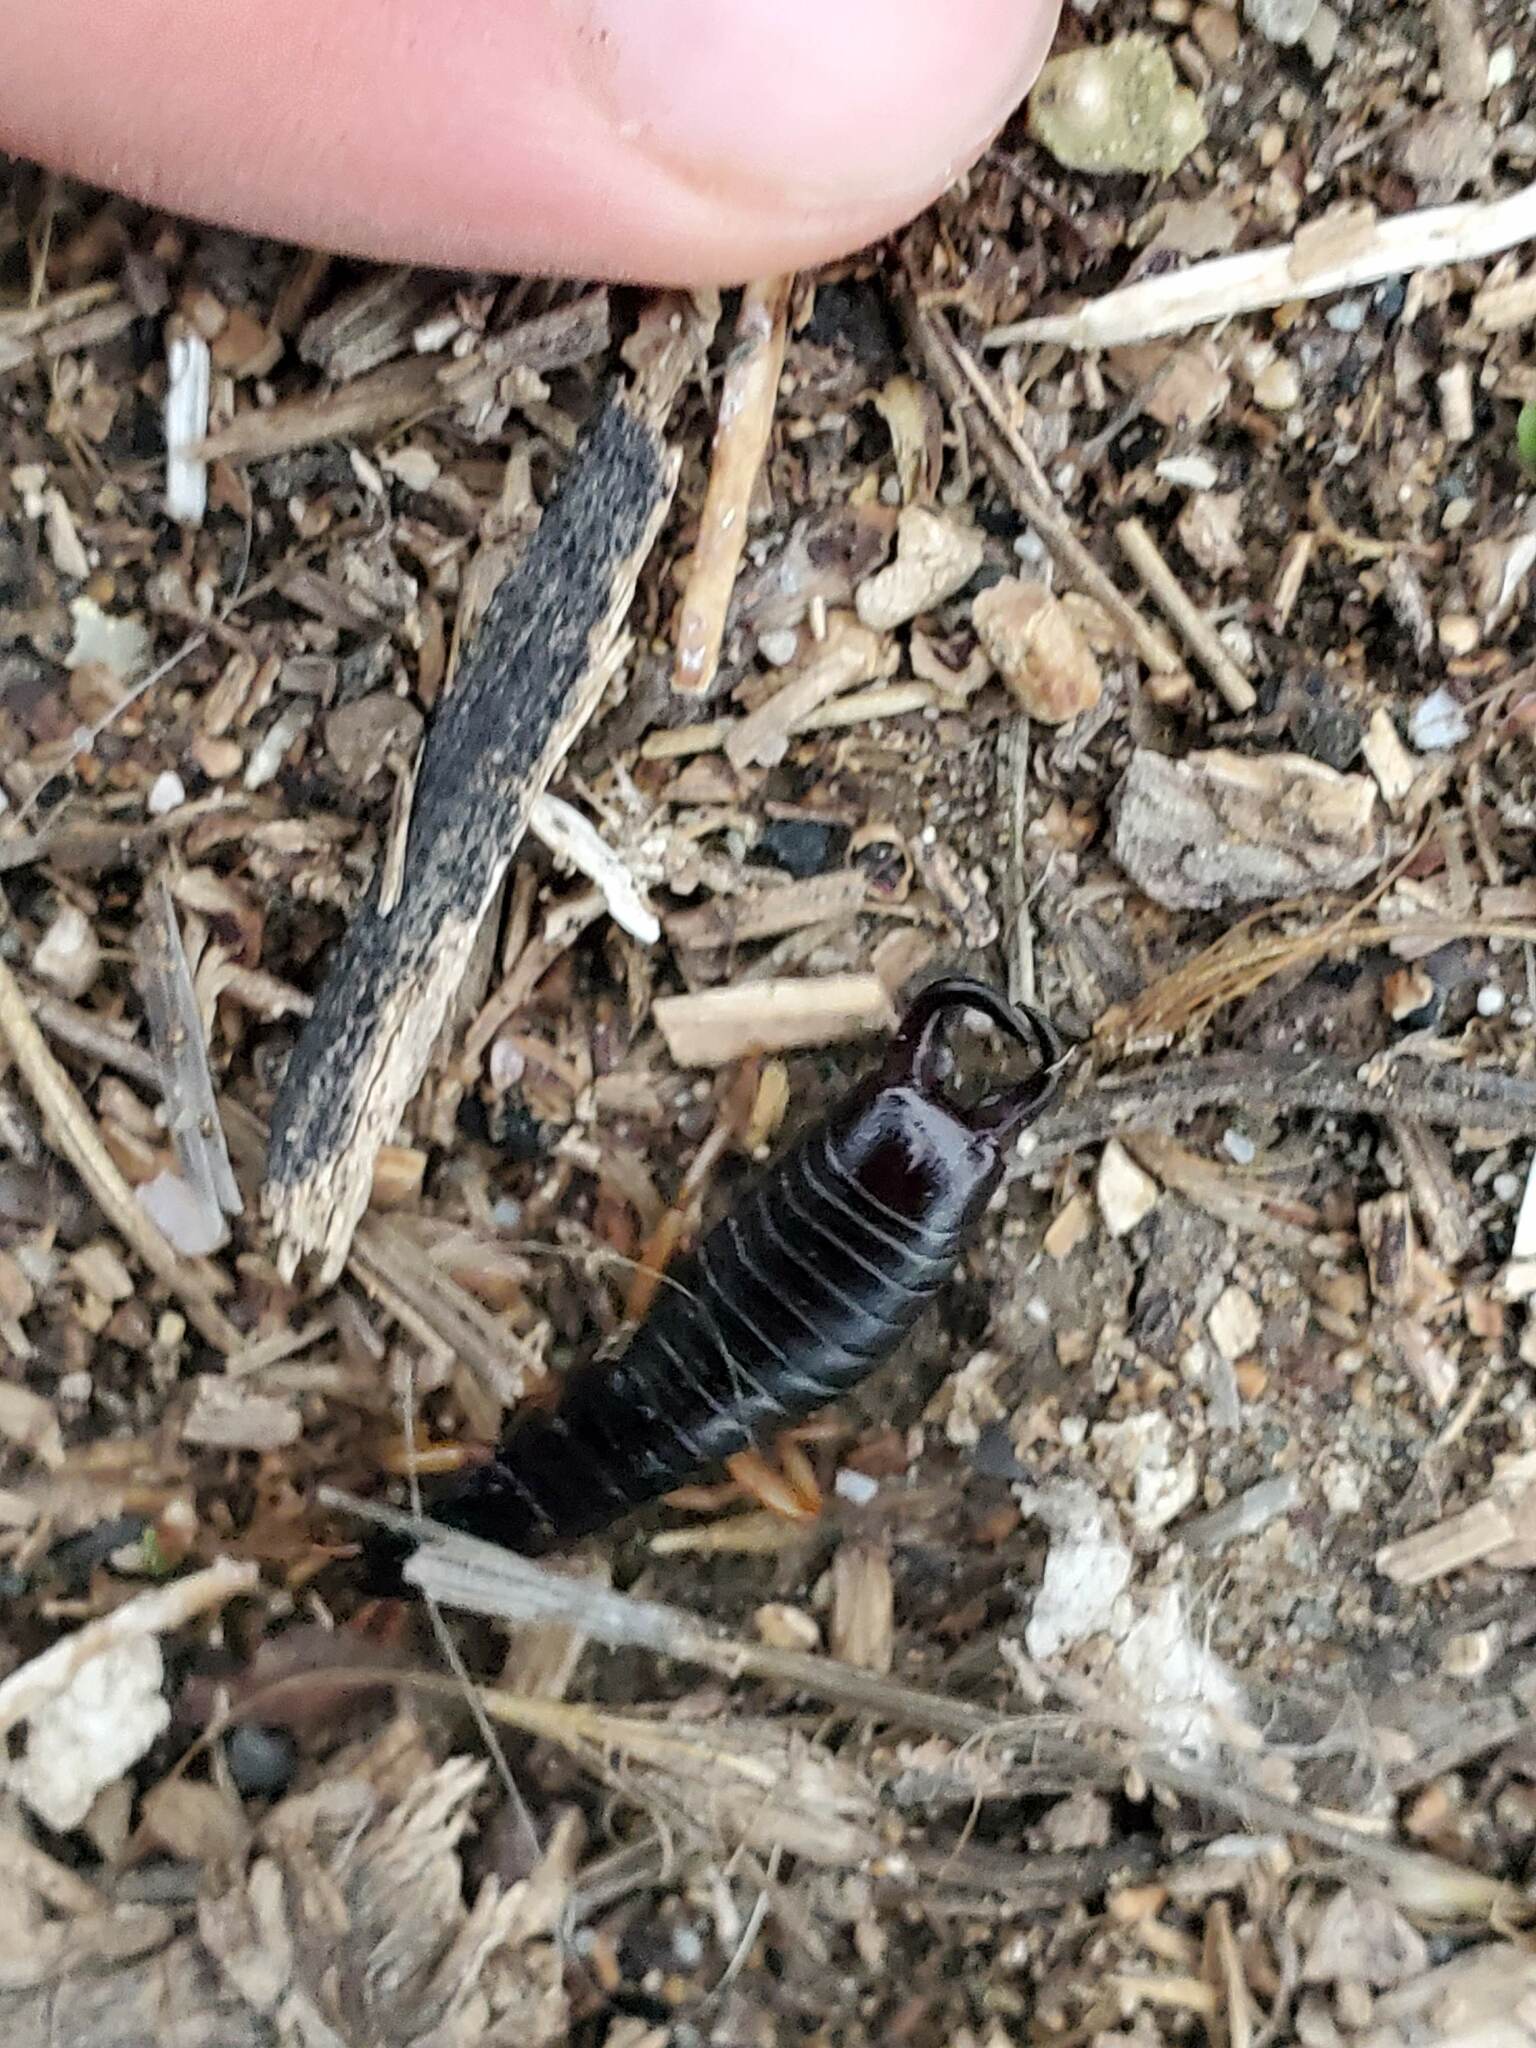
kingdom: Animalia
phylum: Arthropoda
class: Insecta
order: Dermaptera
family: Anisolabididae
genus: Anisolabis
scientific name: Anisolabis maritima
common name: Maritime earwig
